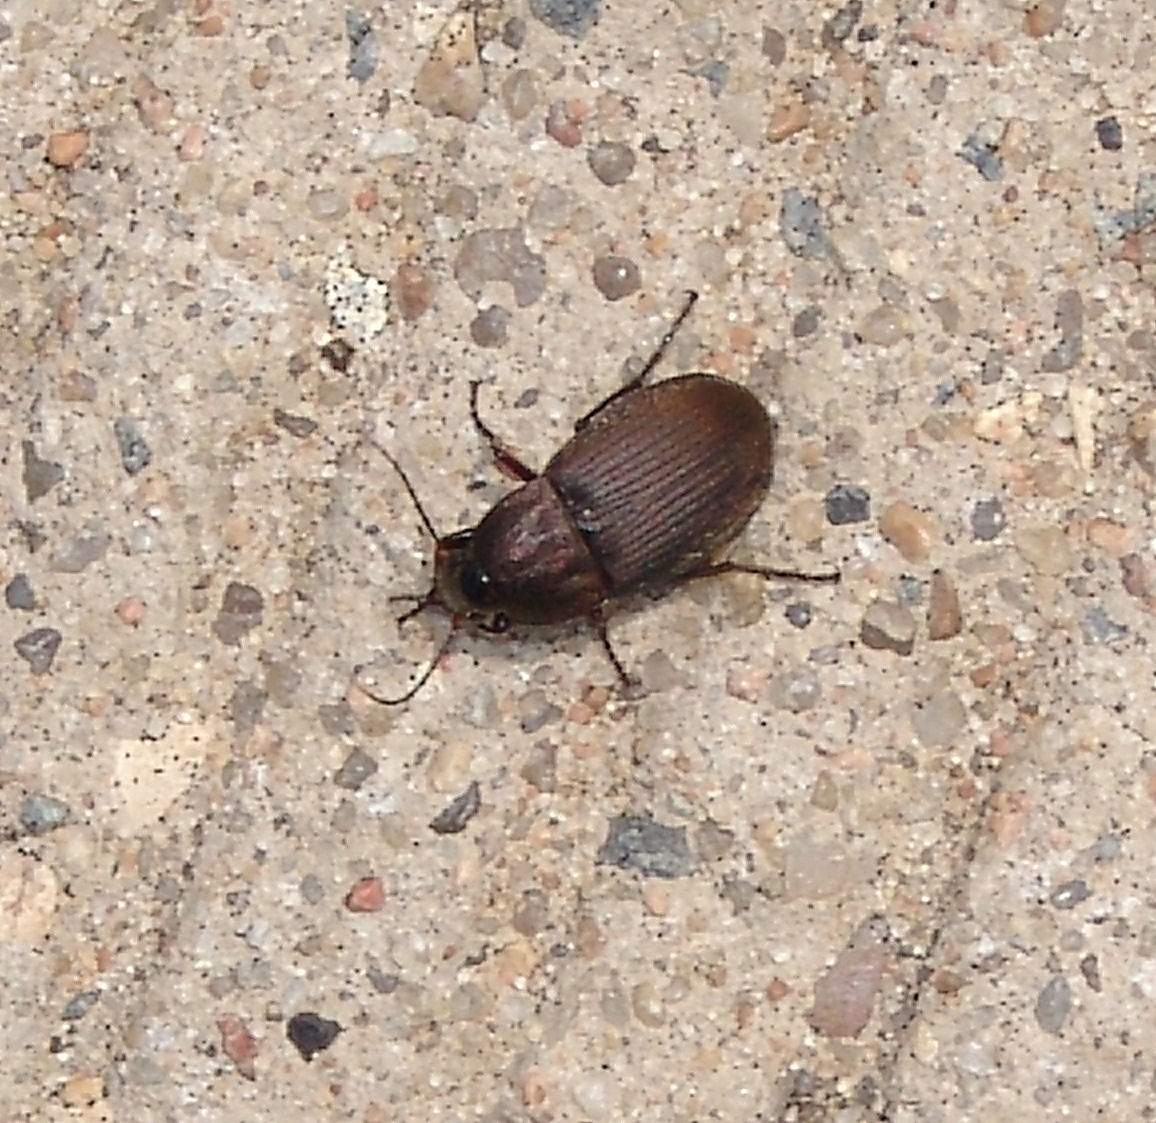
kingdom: Animalia
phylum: Arthropoda
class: Insecta
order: Coleoptera
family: Carabidae
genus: Chlaenius
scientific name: Chlaenius tomentosus
